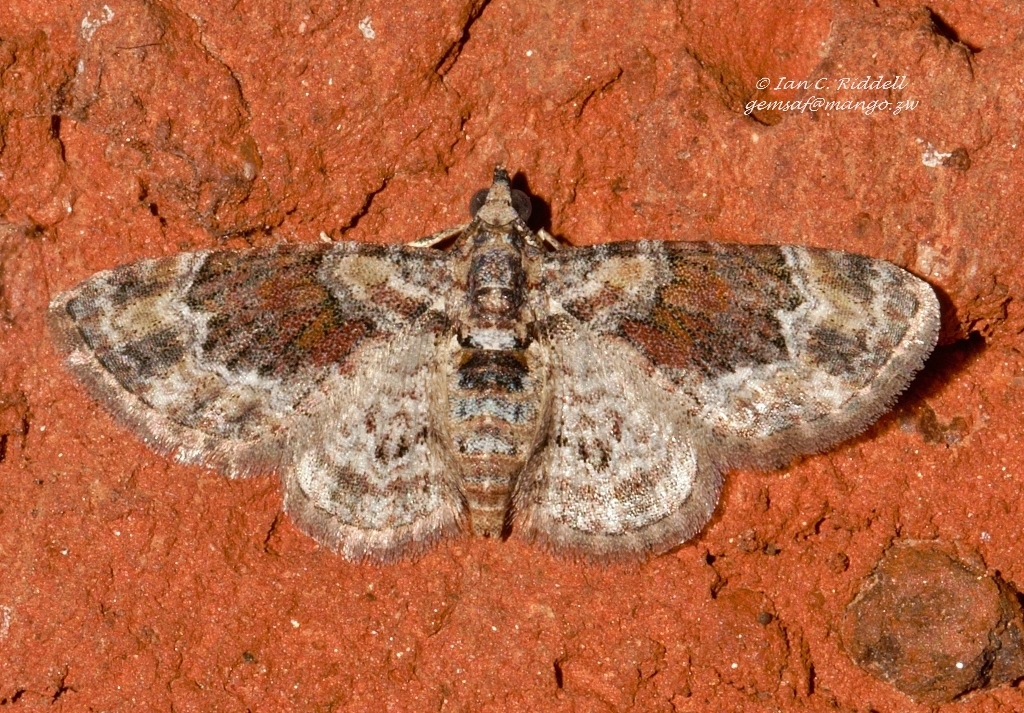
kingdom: Animalia
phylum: Arthropoda
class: Insecta
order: Lepidoptera
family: Geometridae
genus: Mesocolpia
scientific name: Mesocolpia lita
